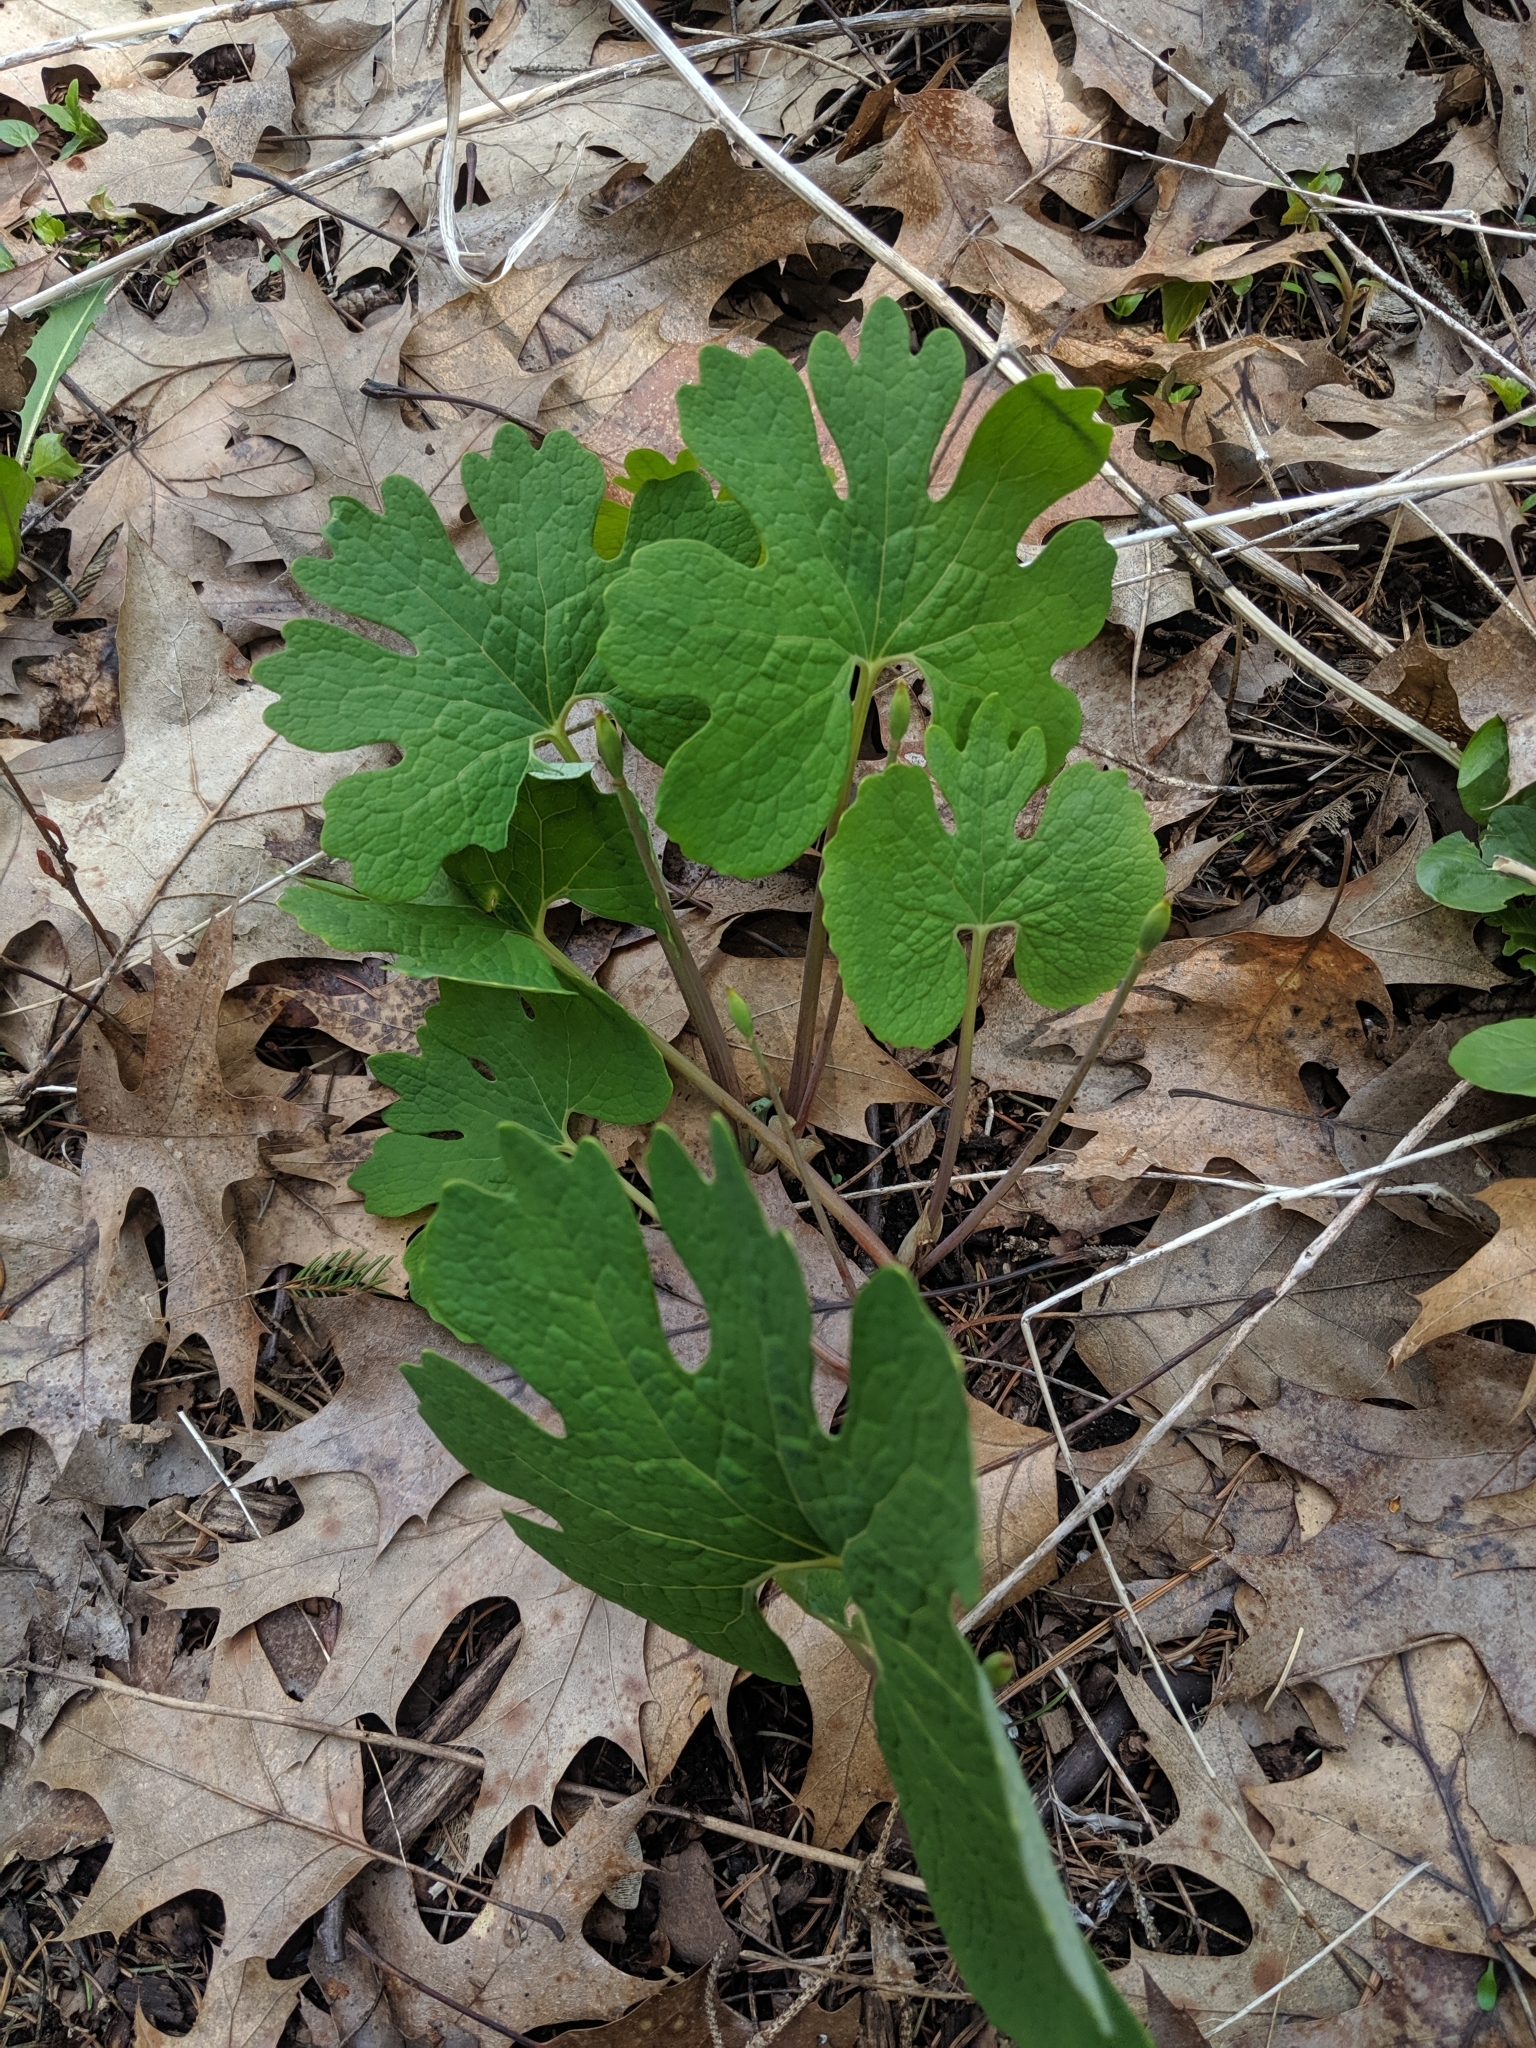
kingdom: Plantae
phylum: Tracheophyta
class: Magnoliopsida
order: Ranunculales
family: Papaveraceae
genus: Sanguinaria
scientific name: Sanguinaria canadensis
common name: Bloodroot
